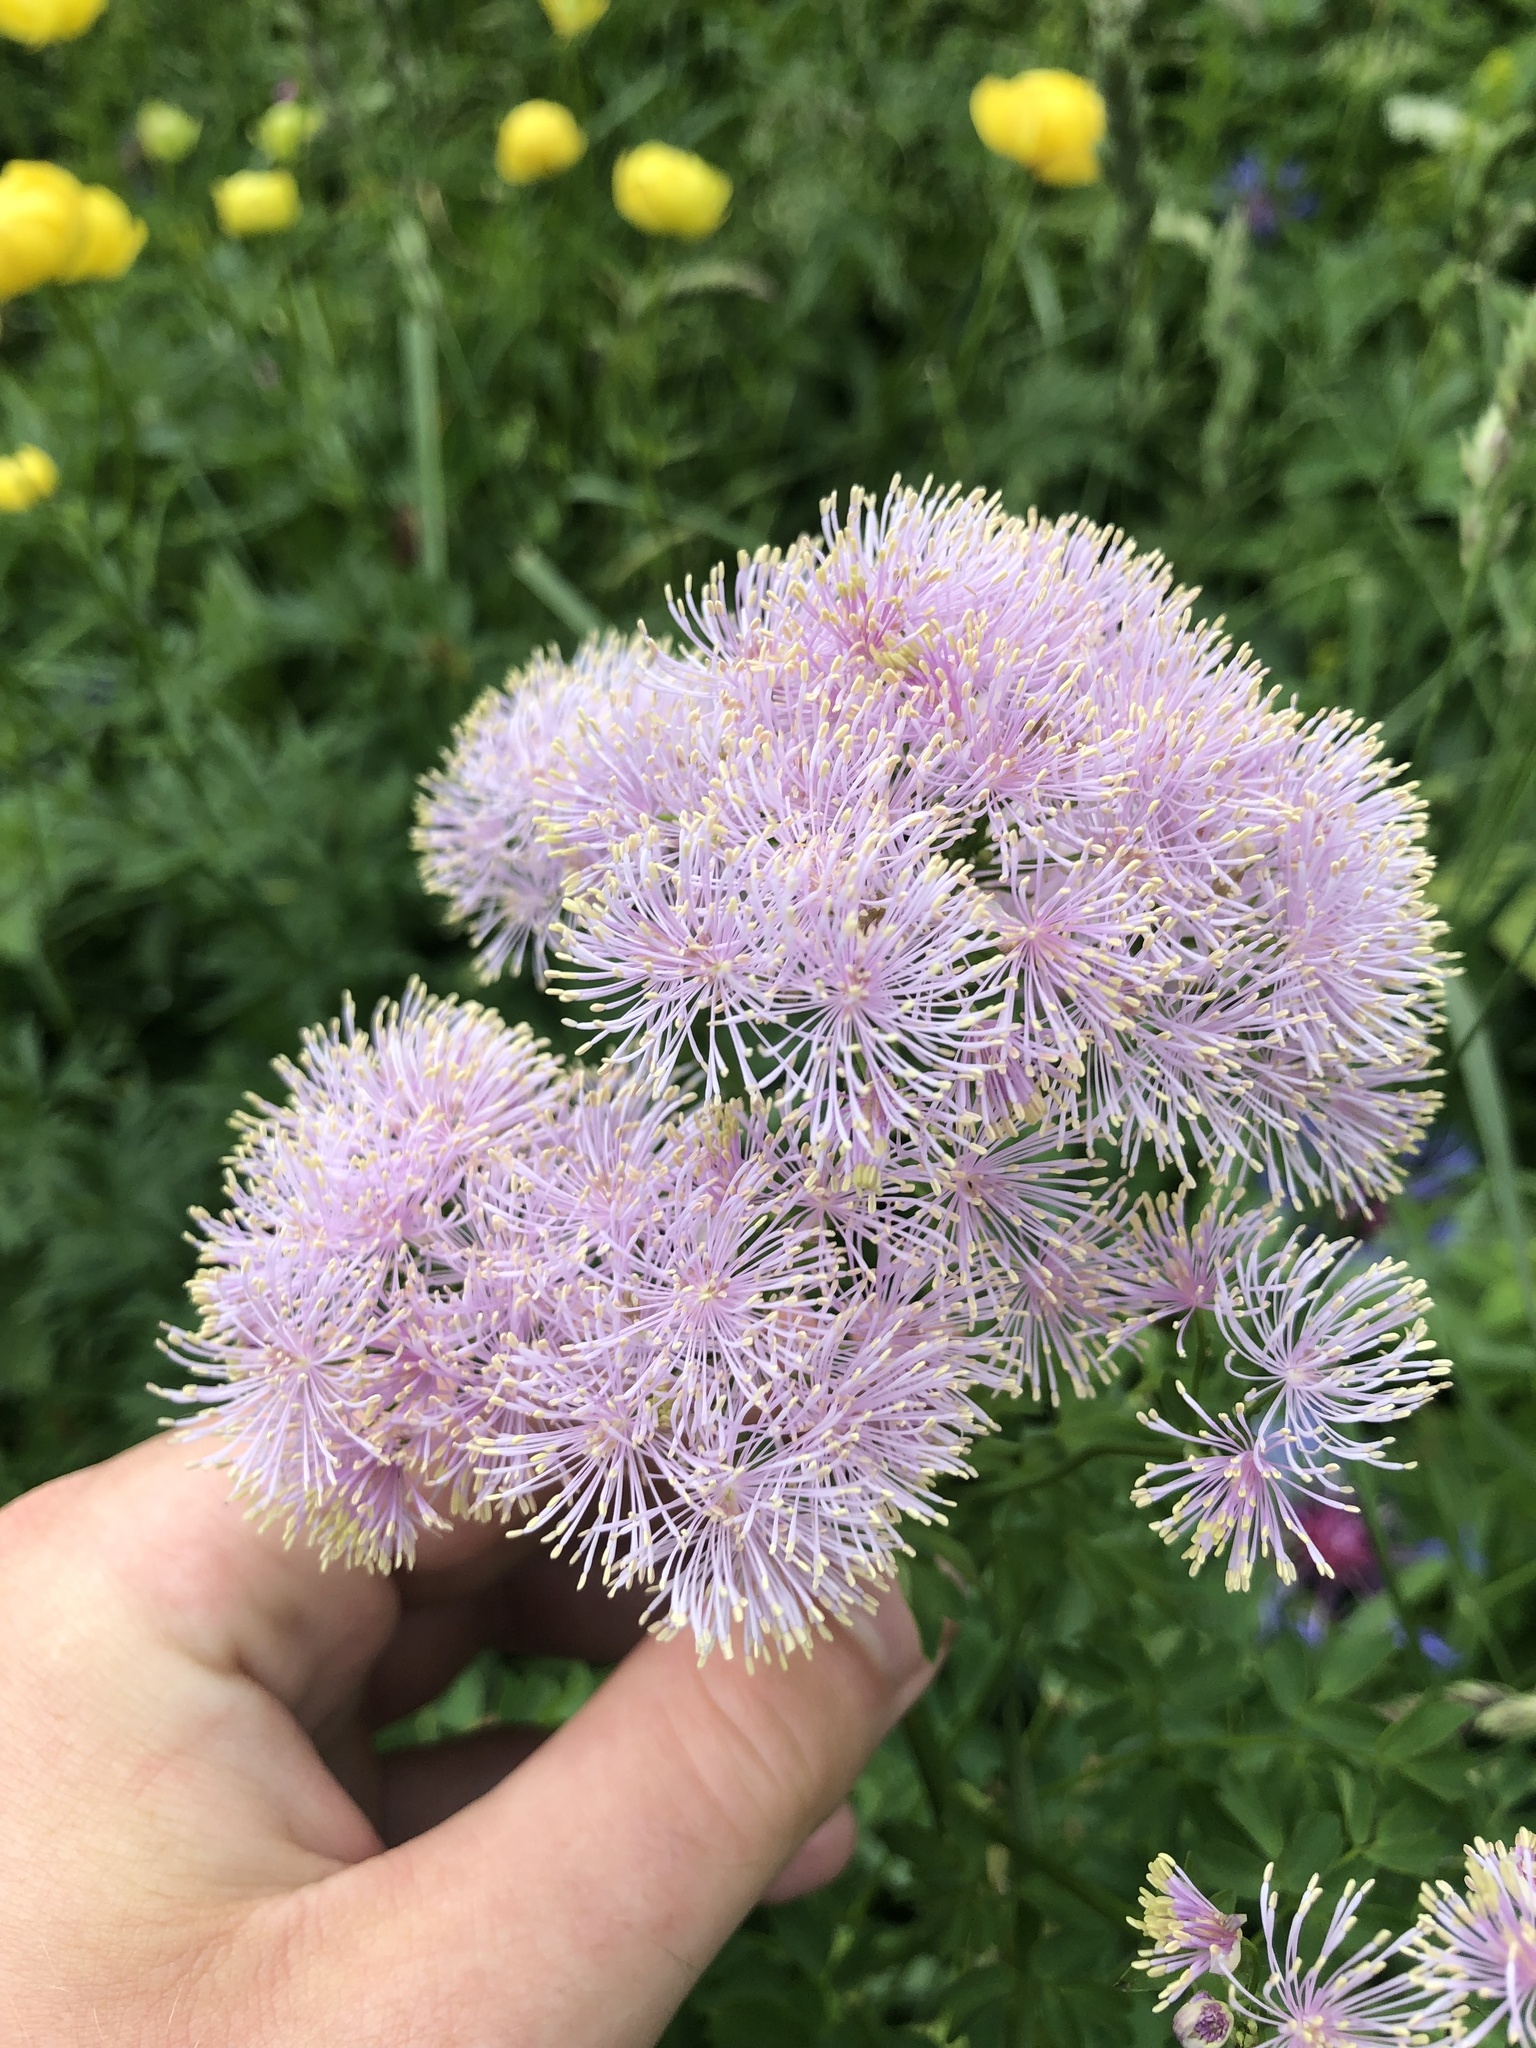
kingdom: Plantae
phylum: Tracheophyta
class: Magnoliopsida
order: Ranunculales
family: Ranunculaceae
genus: Thalictrum
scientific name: Thalictrum aquilegiifolium
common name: French meadow-rue
